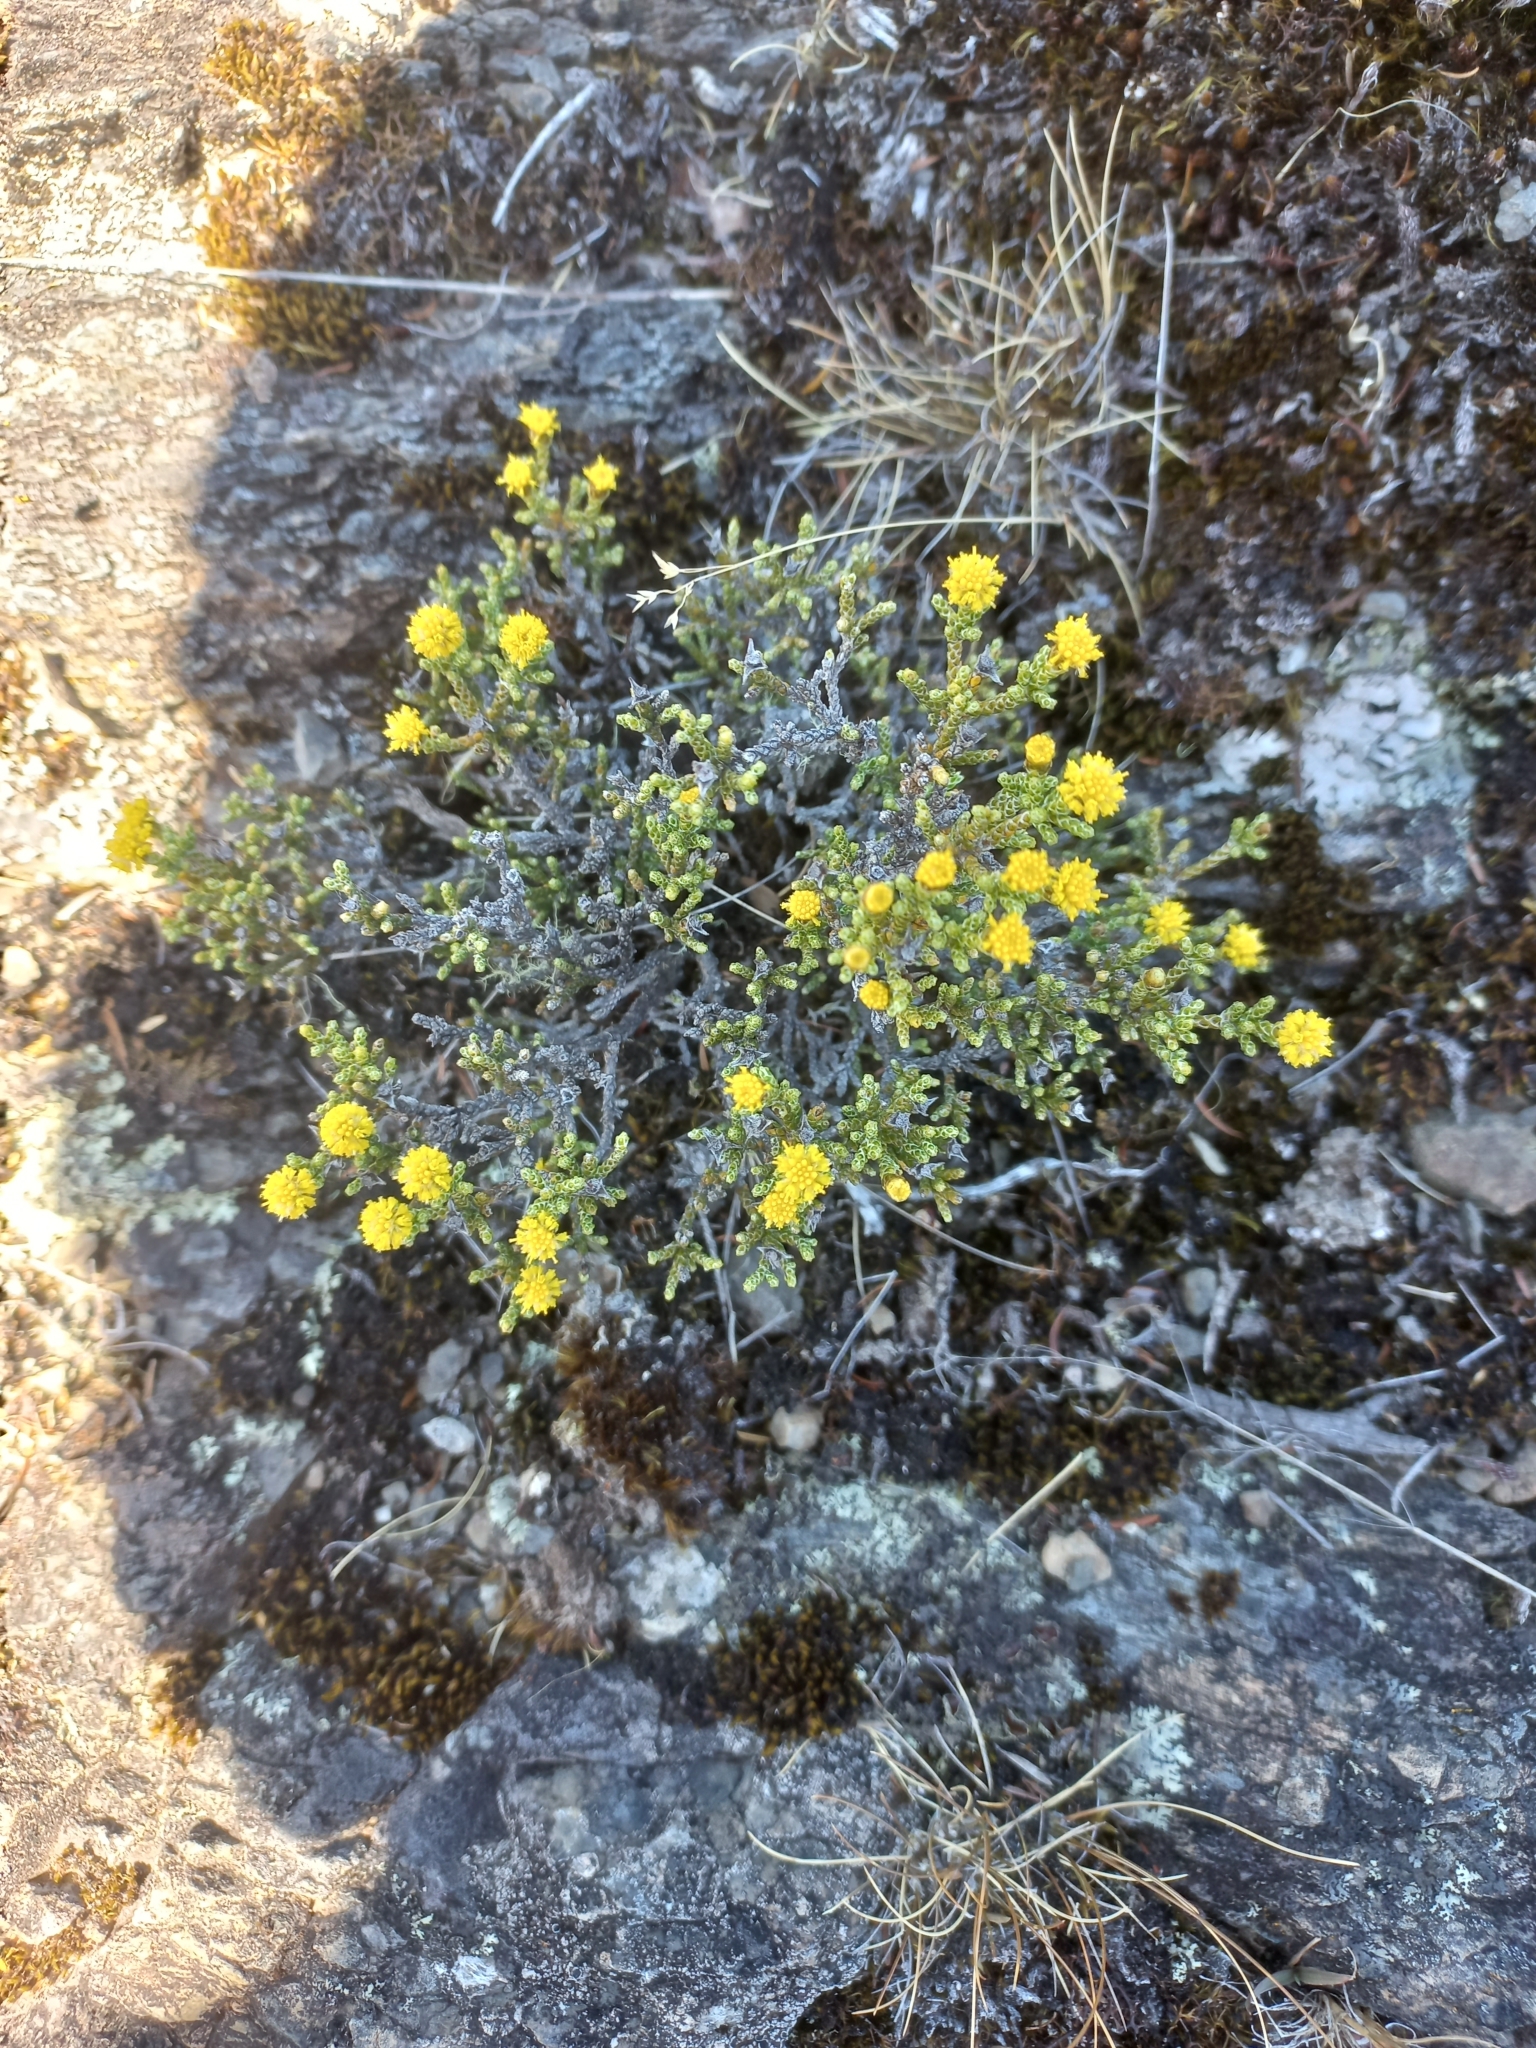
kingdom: Plantae
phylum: Tracheophyta
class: Magnoliopsida
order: Asterales
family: Asteraceae
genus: Ozothamnus
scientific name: Ozothamnus parvifolius
